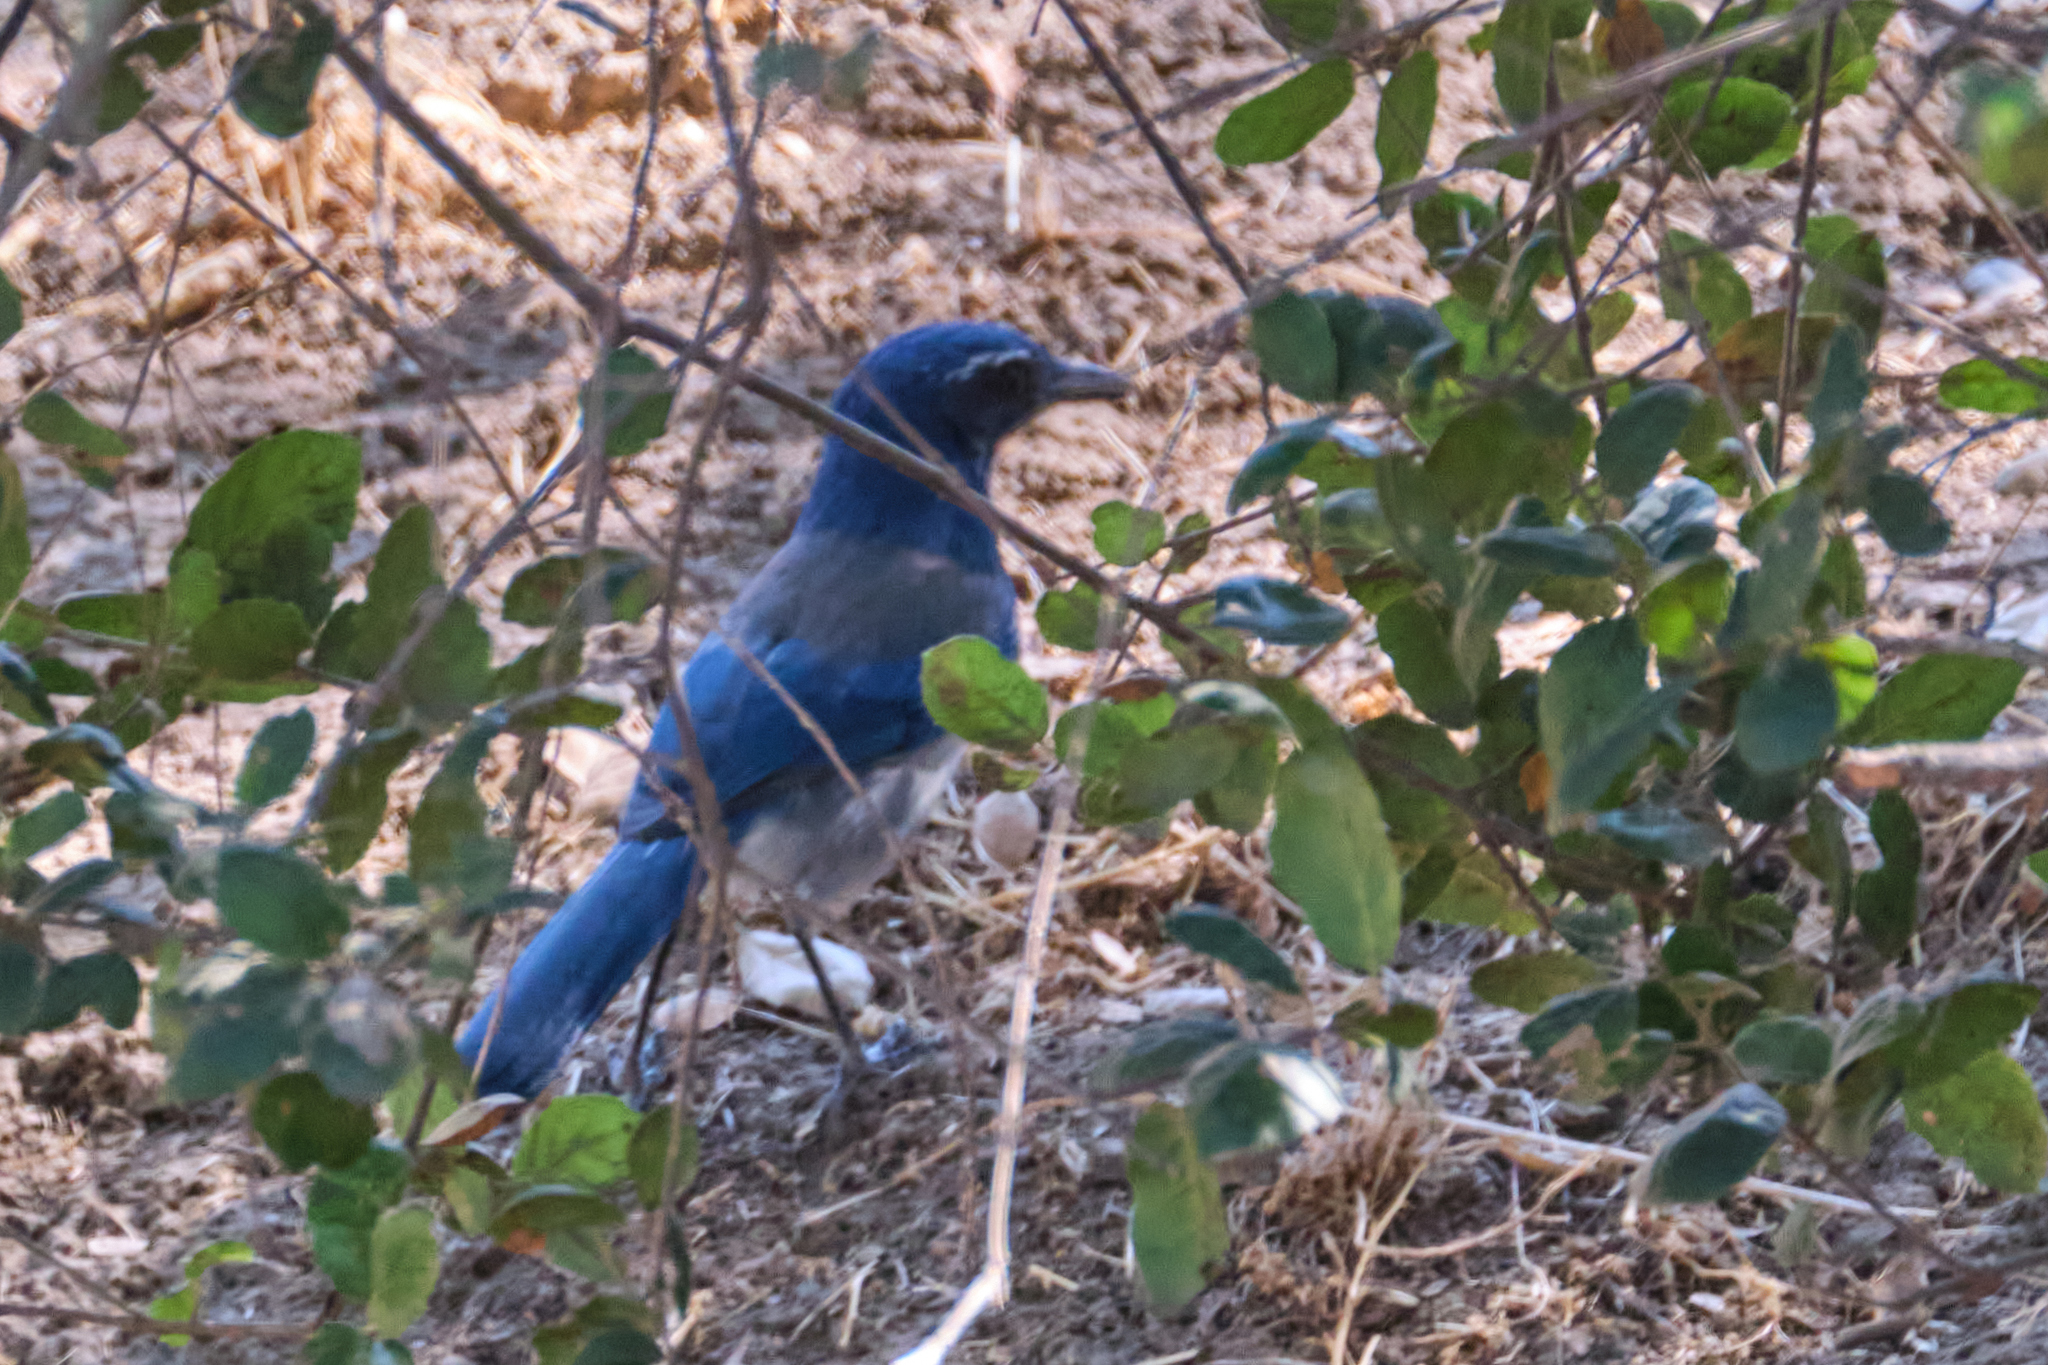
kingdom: Animalia
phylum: Chordata
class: Aves
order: Passeriformes
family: Corvidae
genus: Aphelocoma
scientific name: Aphelocoma californica
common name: California scrub-jay
